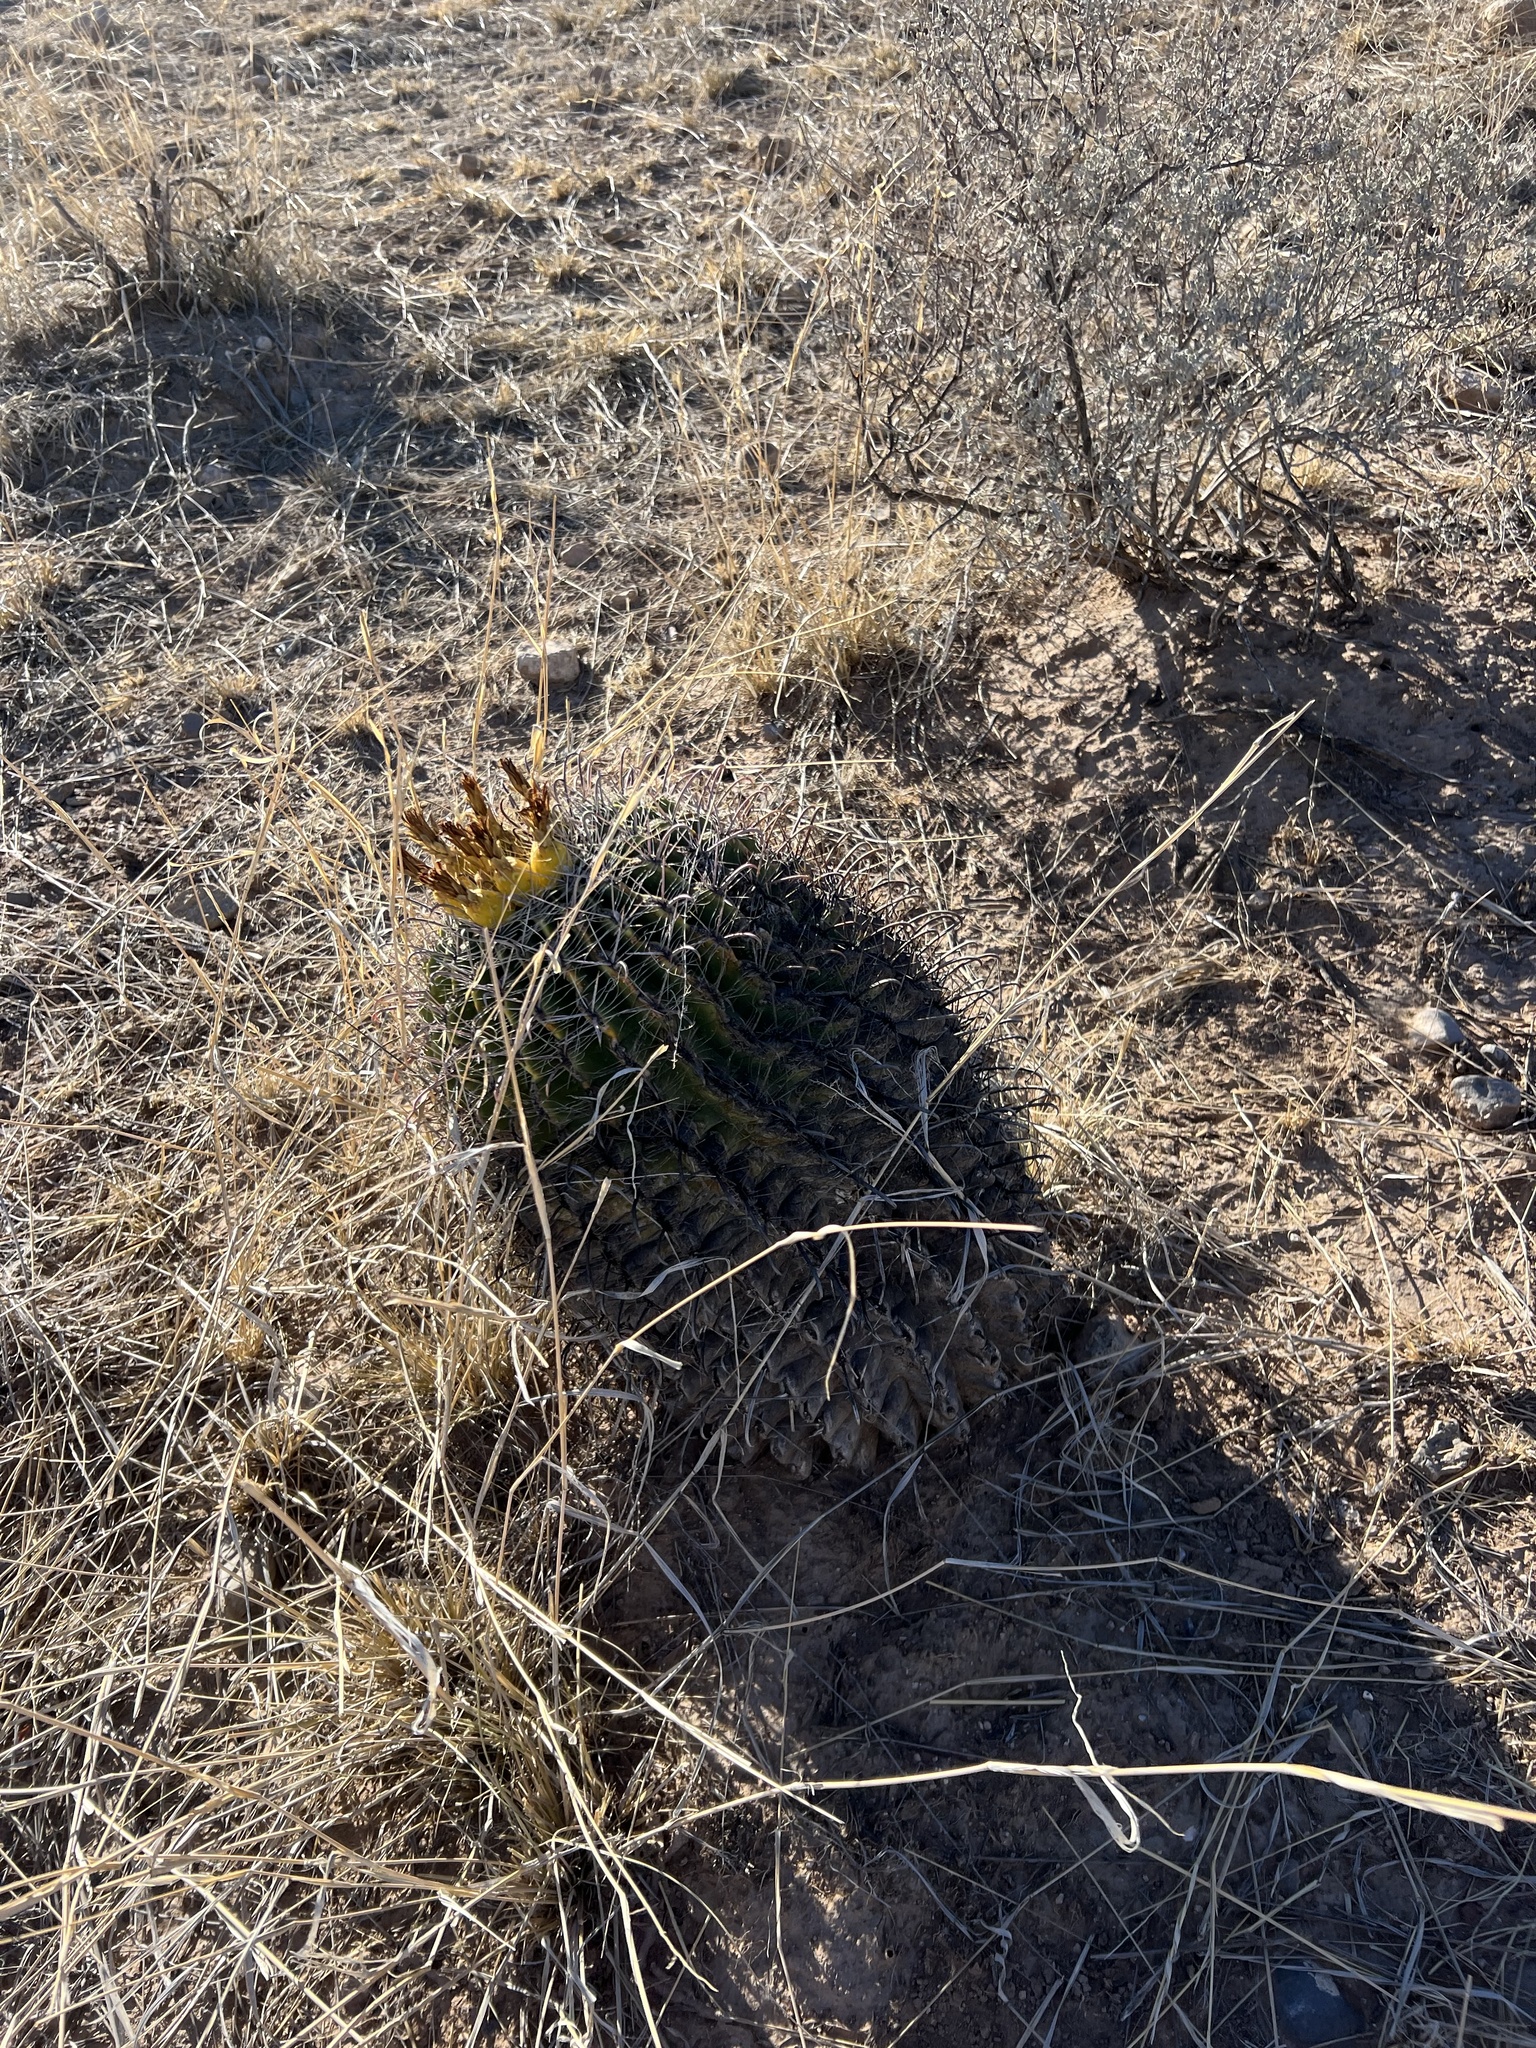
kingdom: Plantae
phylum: Tracheophyta
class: Magnoliopsida
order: Caryophyllales
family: Cactaceae
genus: Ferocactus
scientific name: Ferocactus wislizeni
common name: Candy barrel cactus
